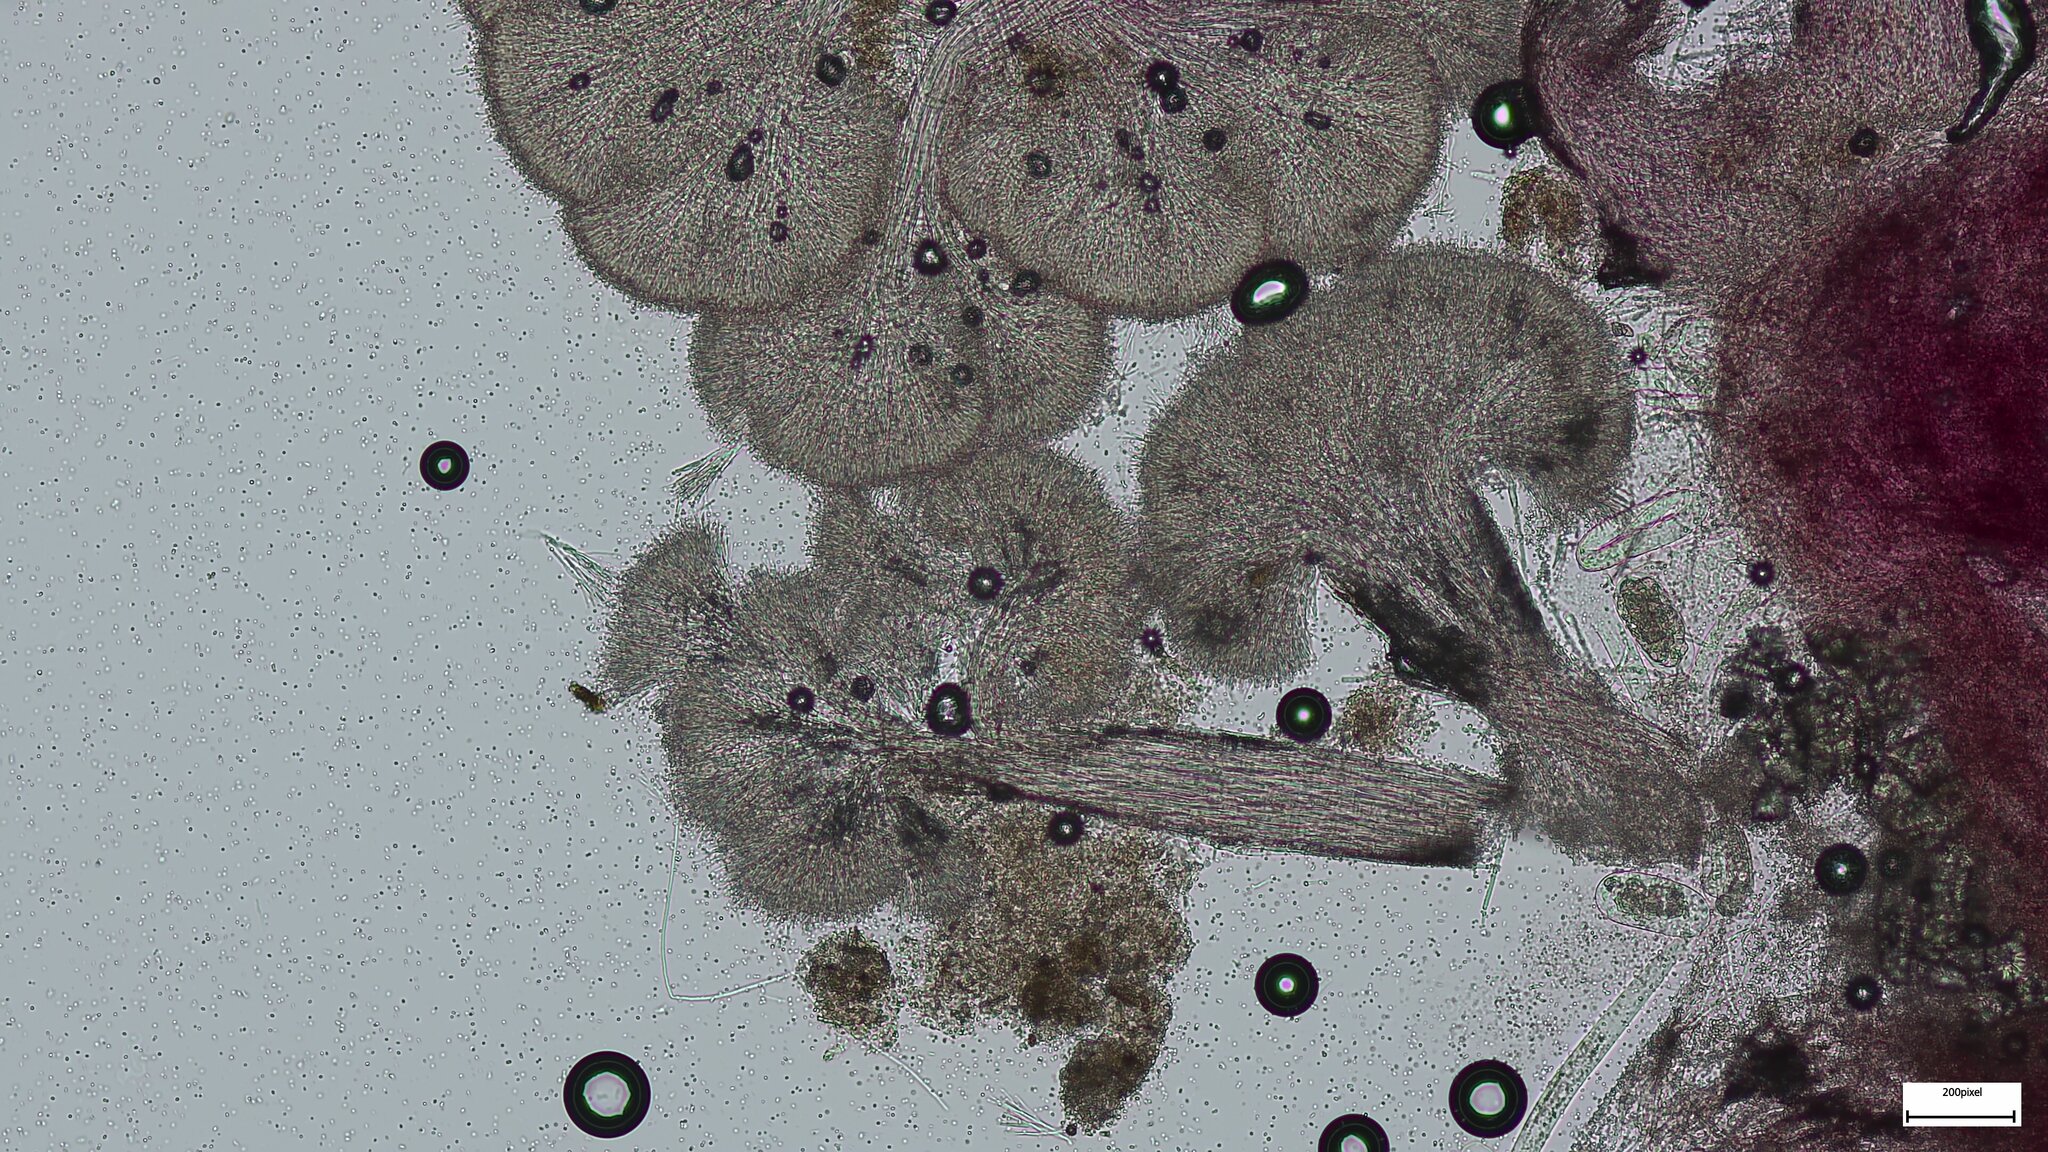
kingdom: Fungi
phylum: Ascomycota
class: Sordariomycetes
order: Hypocreales
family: Hypocreaceae
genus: Sphaerostilbella
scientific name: Sphaerostilbella aurifila
